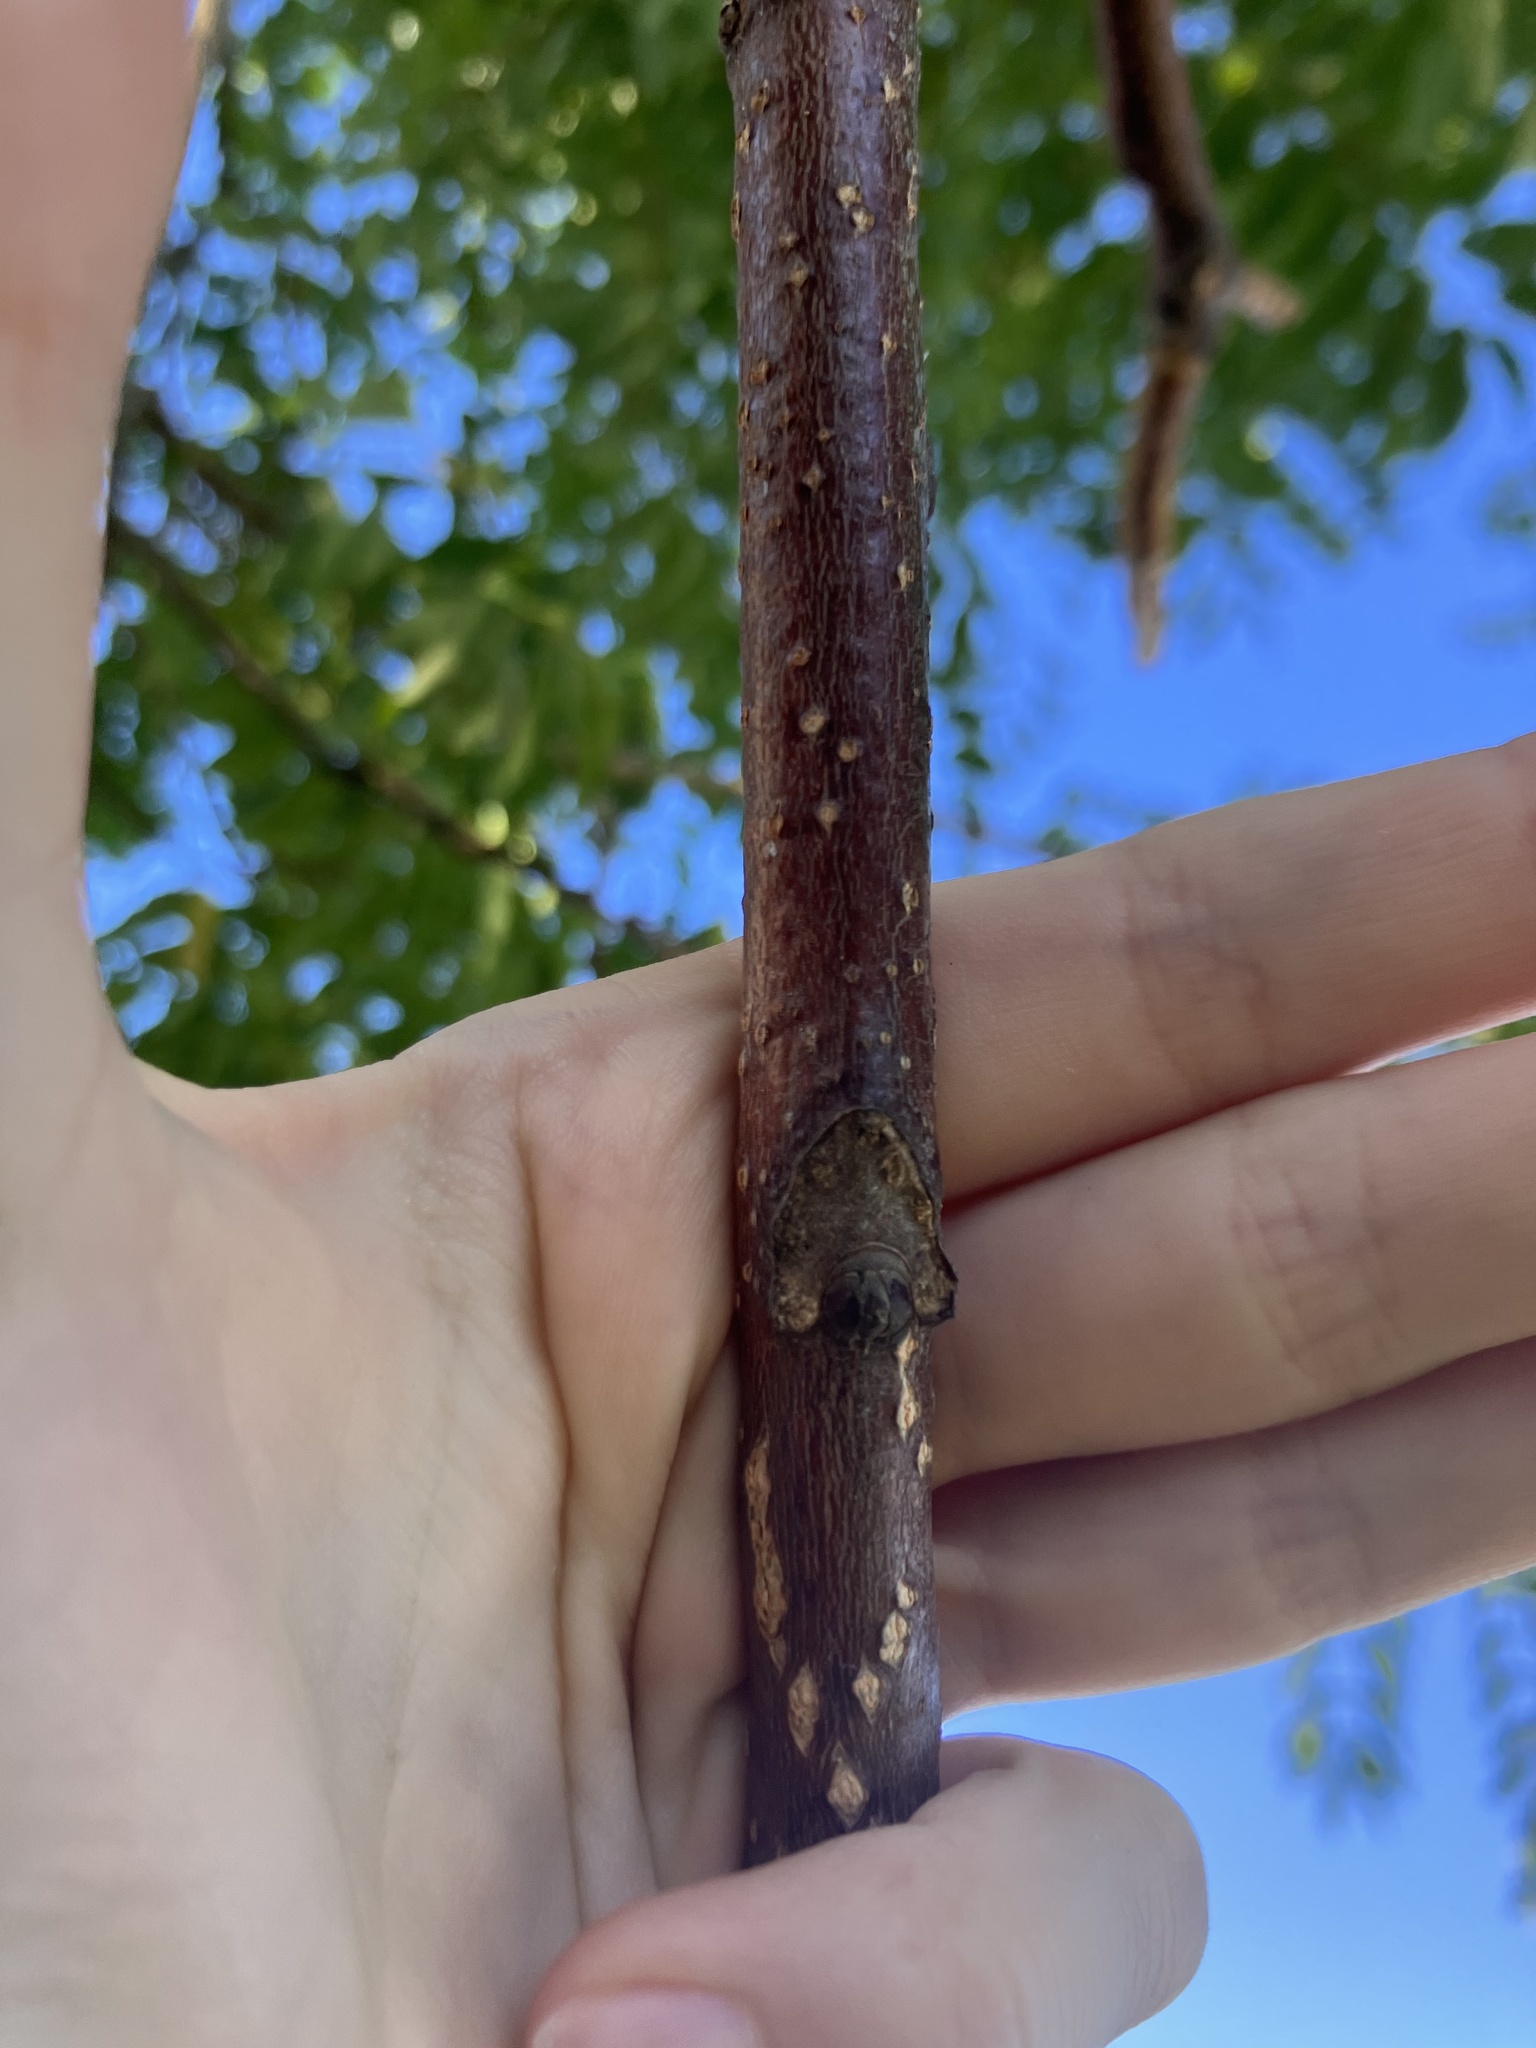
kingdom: Plantae
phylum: Tracheophyta
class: Magnoliopsida
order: Sapindales
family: Simaroubaceae
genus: Ailanthus
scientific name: Ailanthus altissima
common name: Tree-of-heaven
